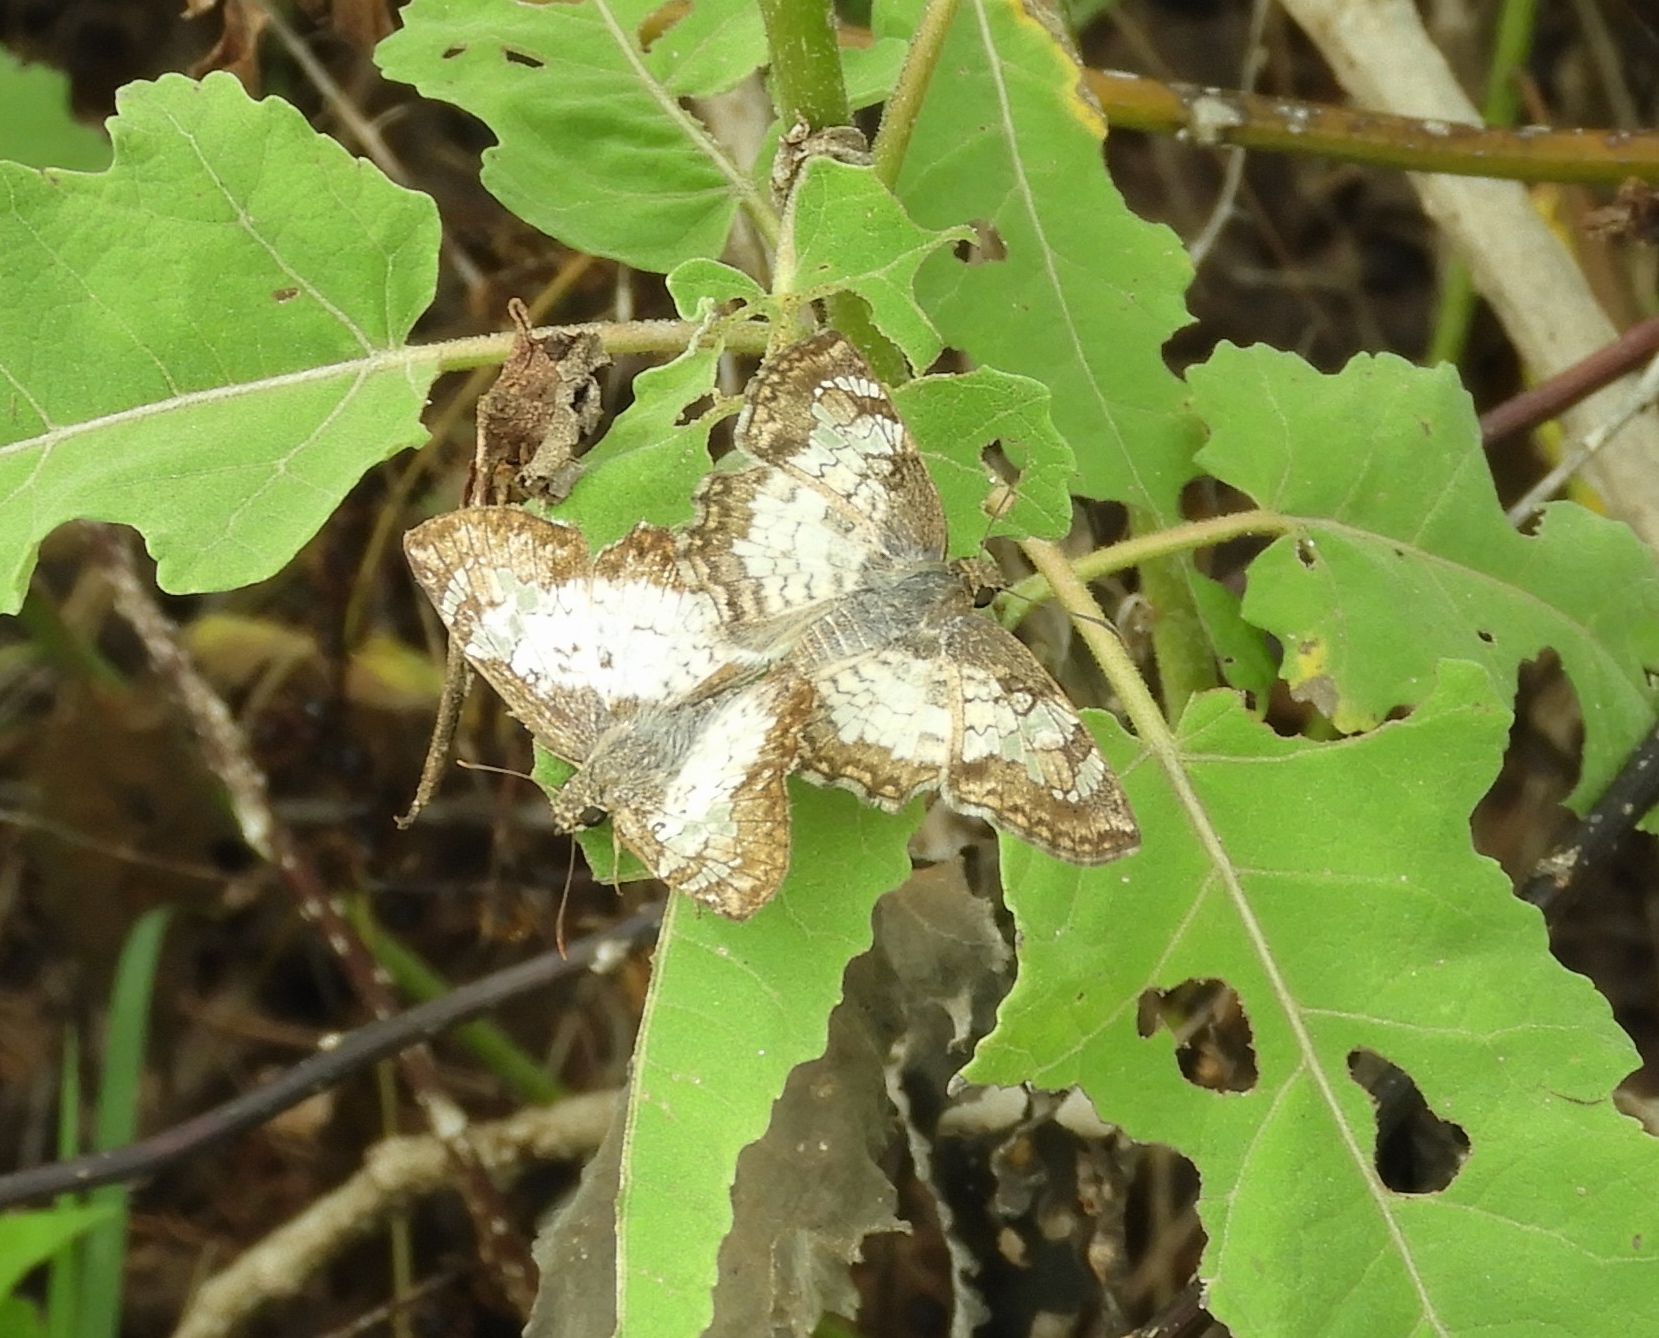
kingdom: Animalia
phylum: Arthropoda
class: Insecta
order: Lepidoptera
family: Hesperiidae
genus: Antigonus
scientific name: Antigonus emorsa
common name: White spurwing
